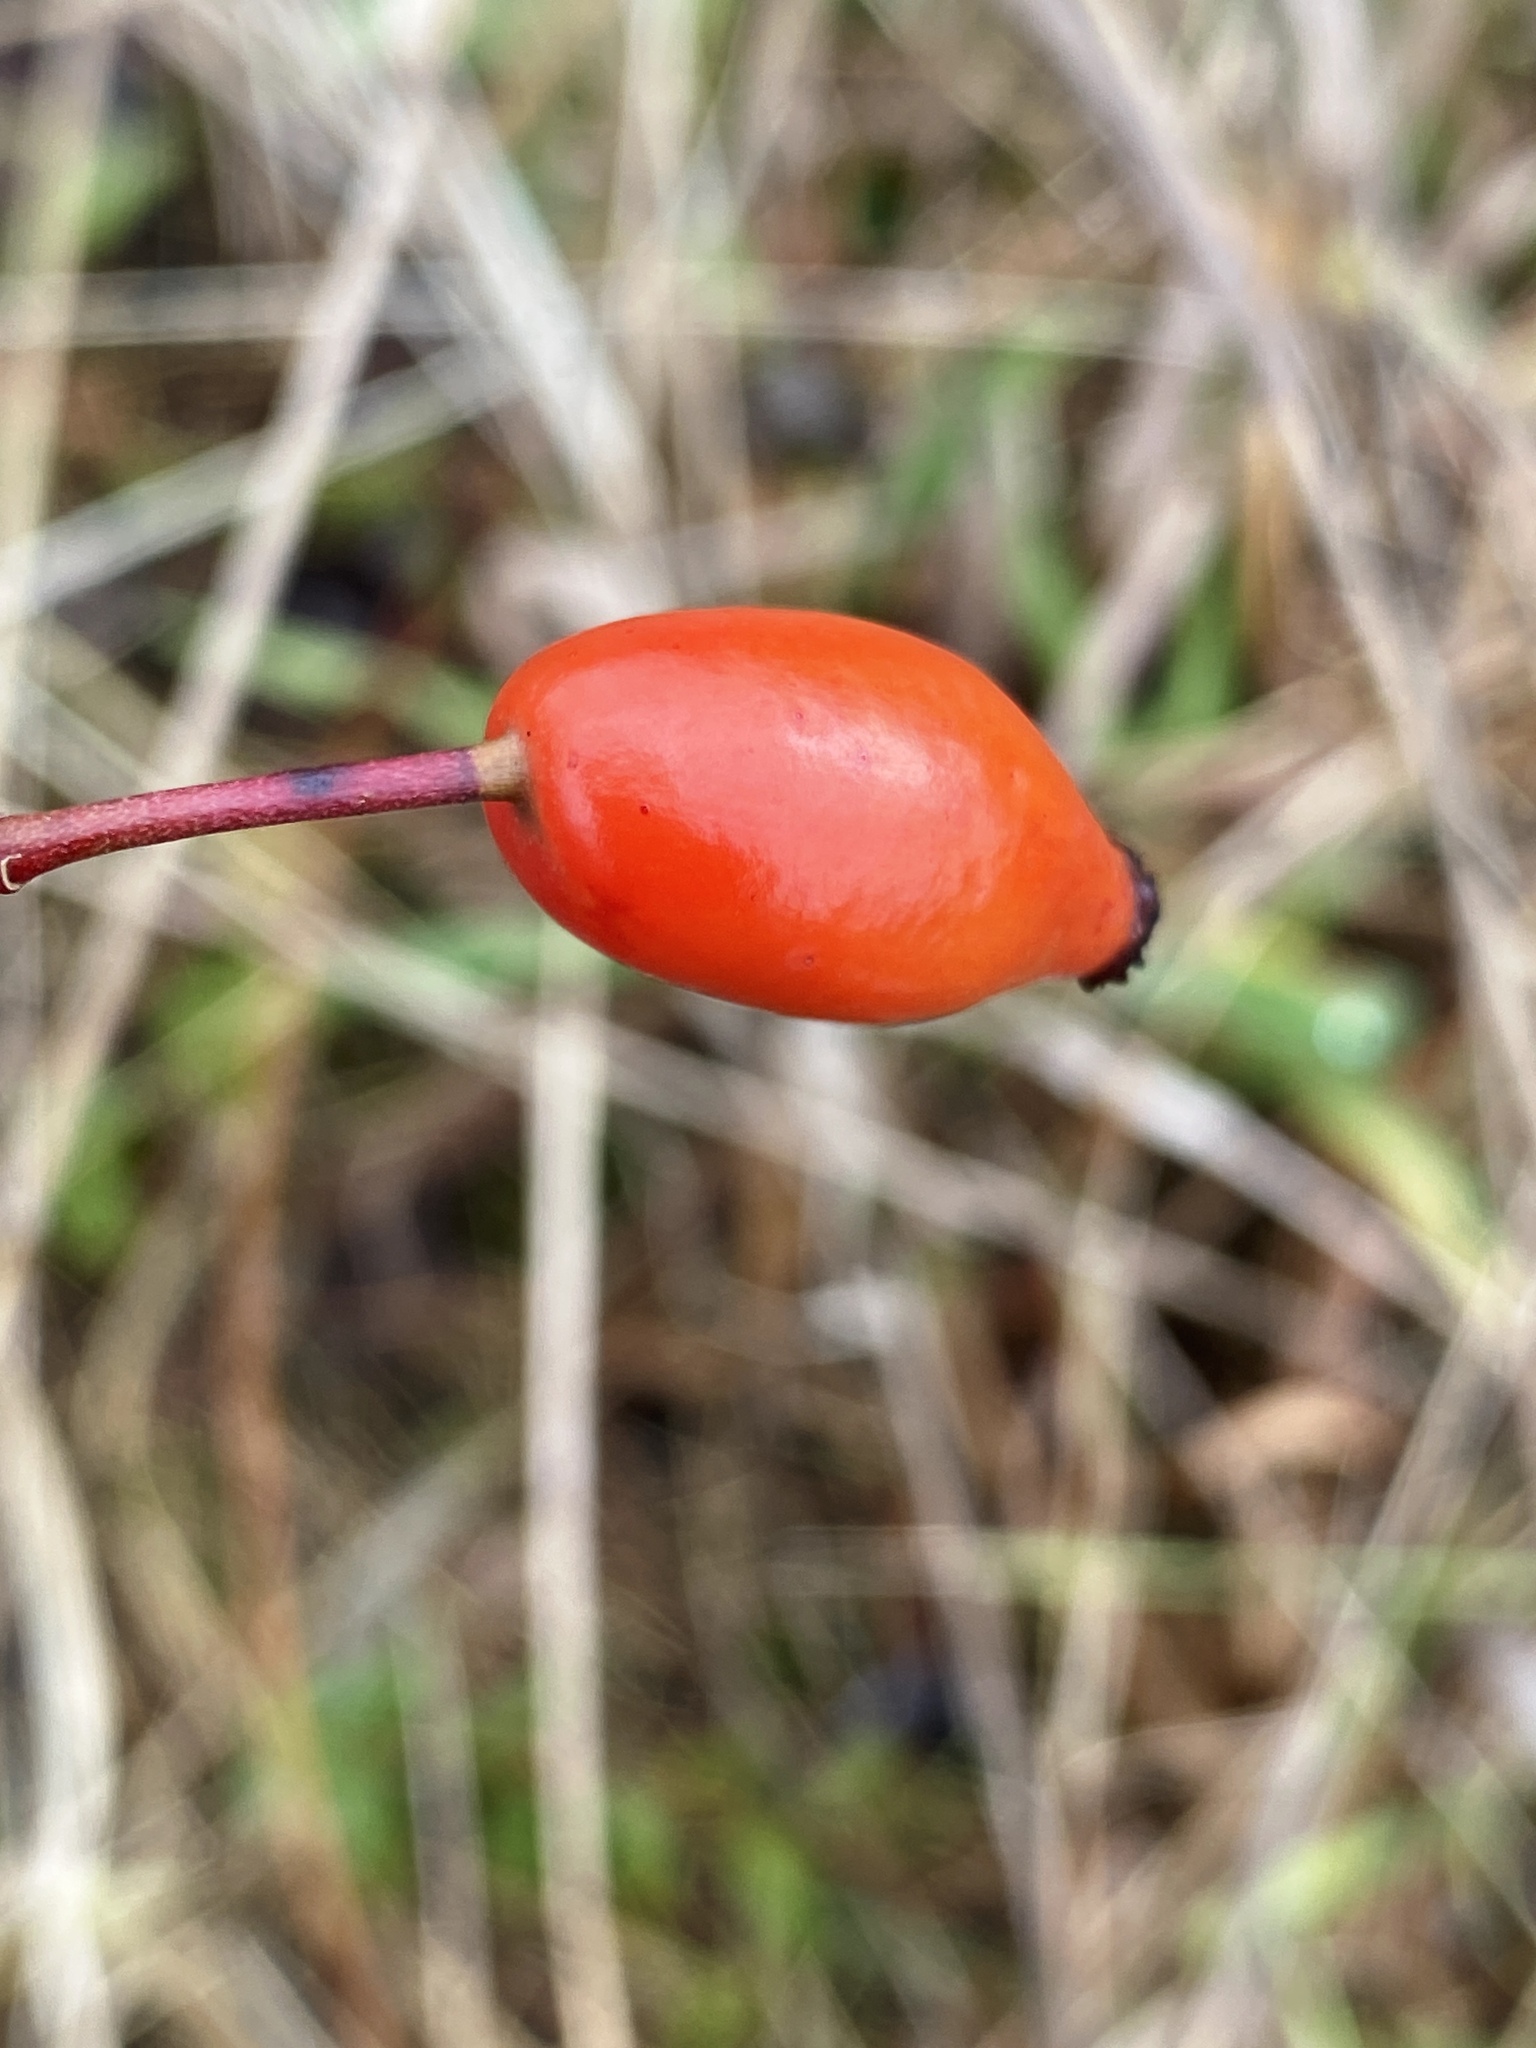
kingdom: Plantae
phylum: Tracheophyta
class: Magnoliopsida
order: Rosales
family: Rosaceae
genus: Rosa
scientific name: Rosa canina
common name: Dog rose
